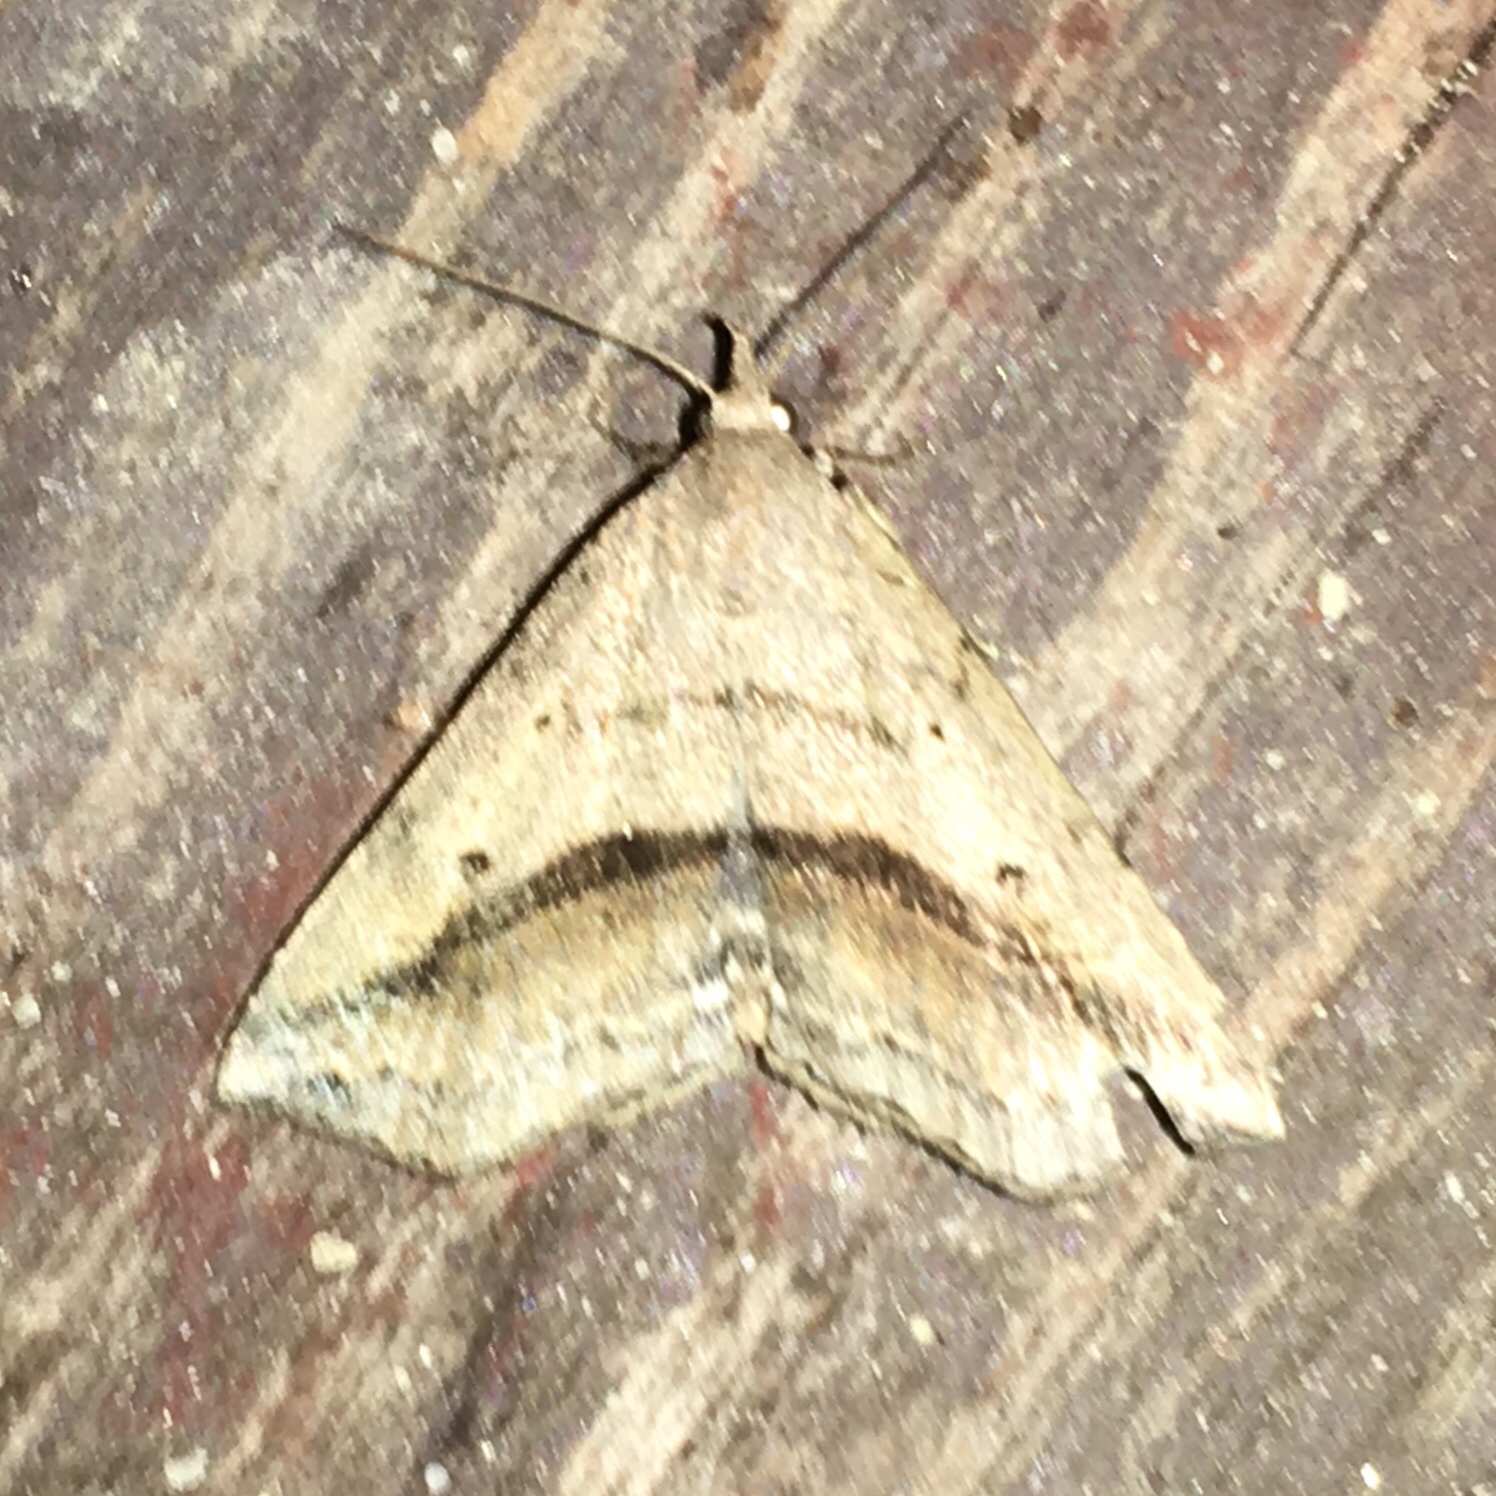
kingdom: Animalia
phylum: Arthropoda
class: Insecta
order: Lepidoptera
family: Erebidae
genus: Spargaloma
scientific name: Spargaloma perditalis
